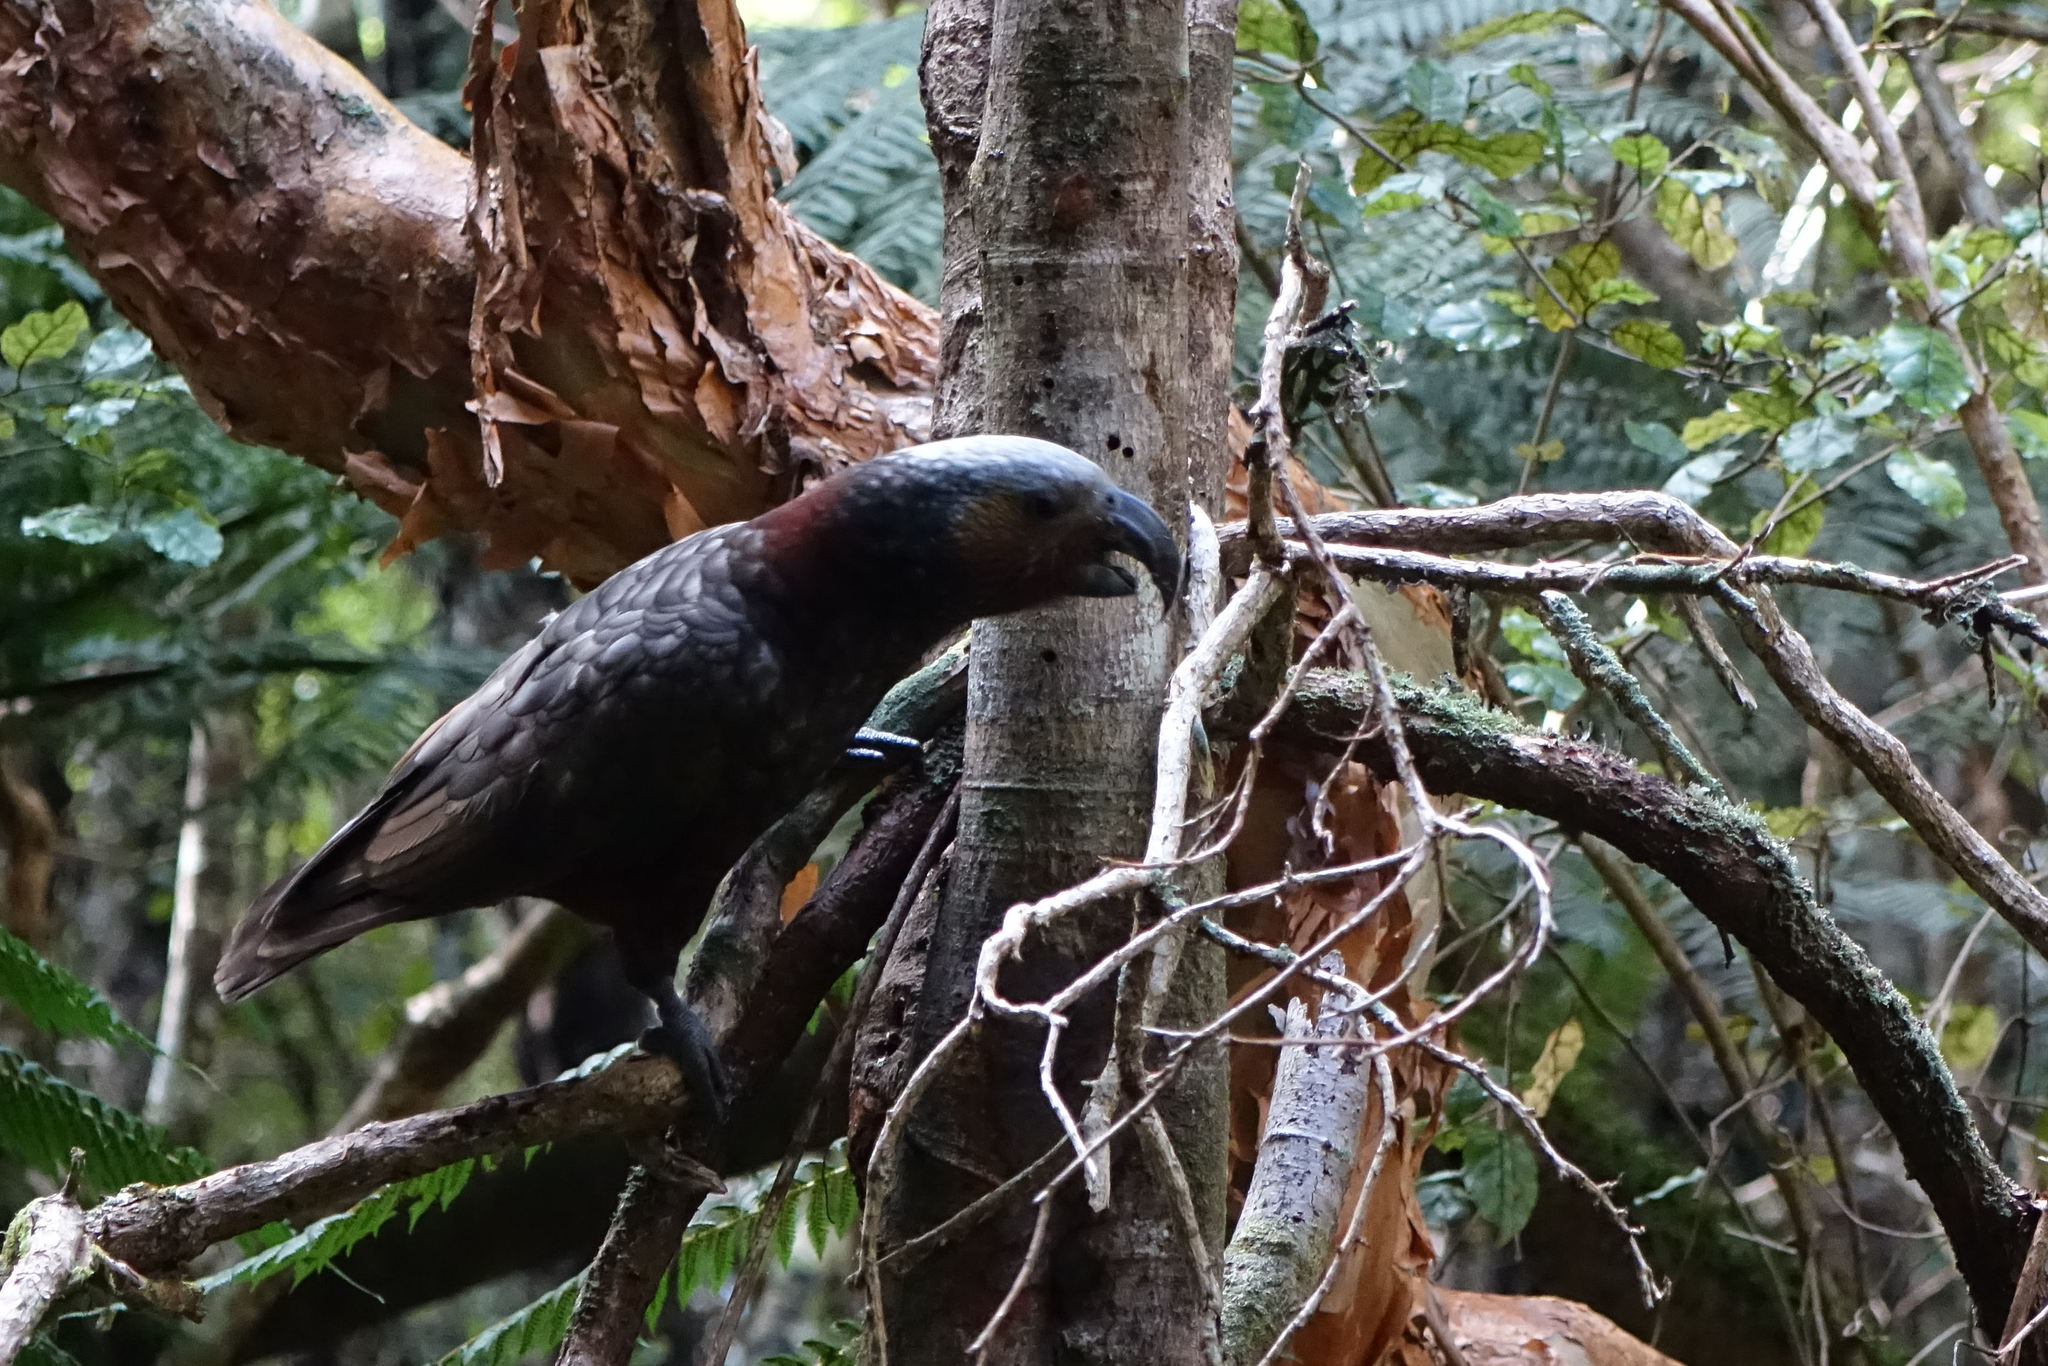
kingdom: Animalia
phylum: Chordata
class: Aves
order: Psittaciformes
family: Psittacidae
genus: Nestor
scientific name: Nestor meridionalis
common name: New zealand kaka
